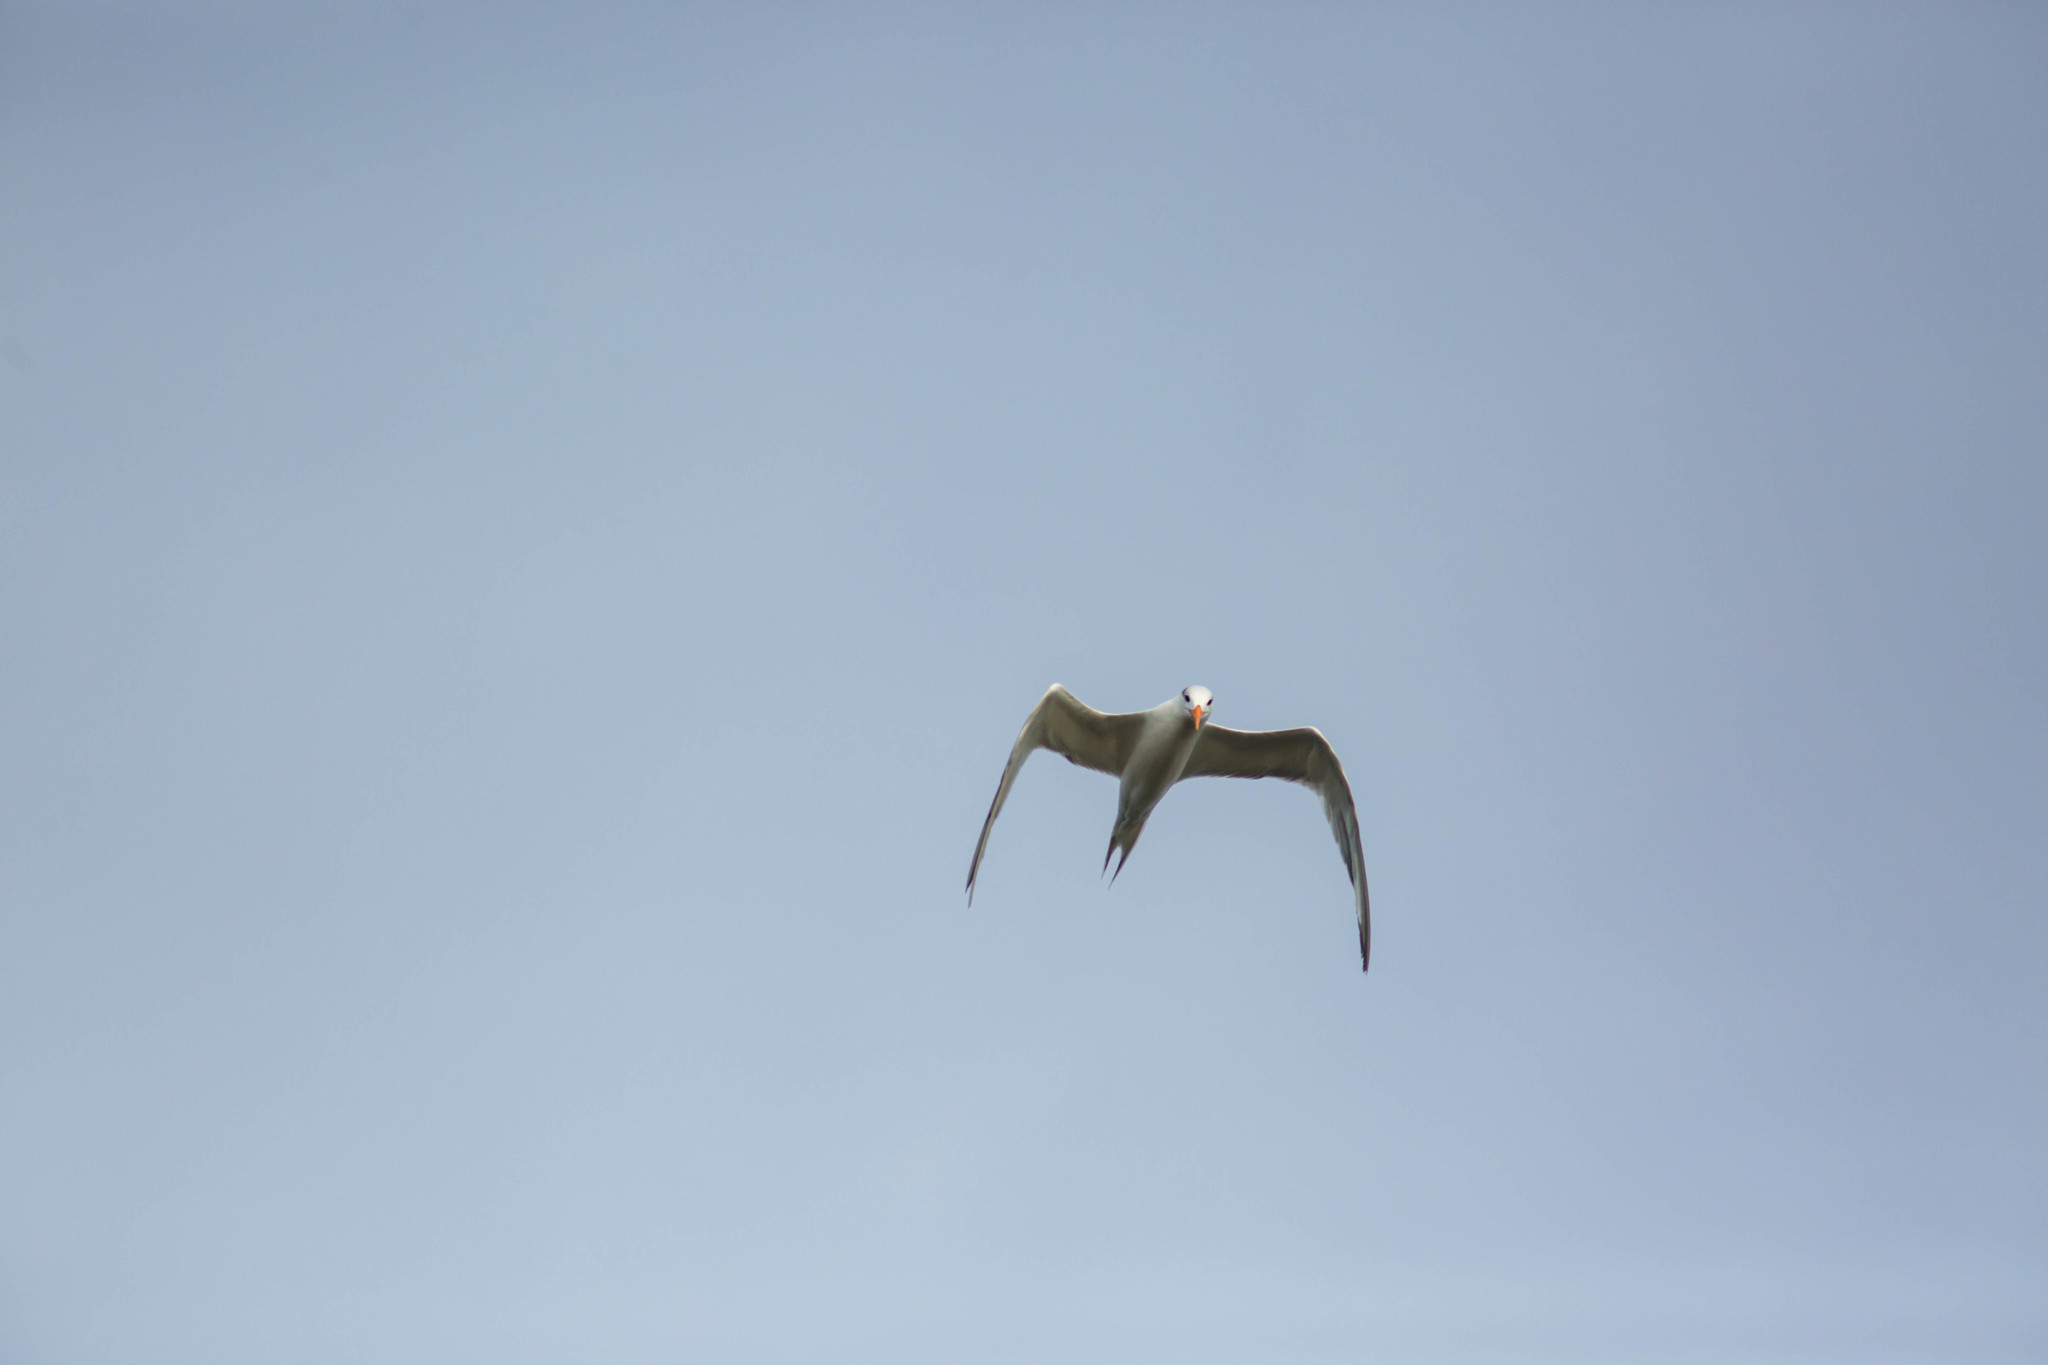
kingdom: Animalia
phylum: Chordata
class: Aves
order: Charadriiformes
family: Laridae
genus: Thalasseus
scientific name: Thalasseus maximus
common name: Royal tern
